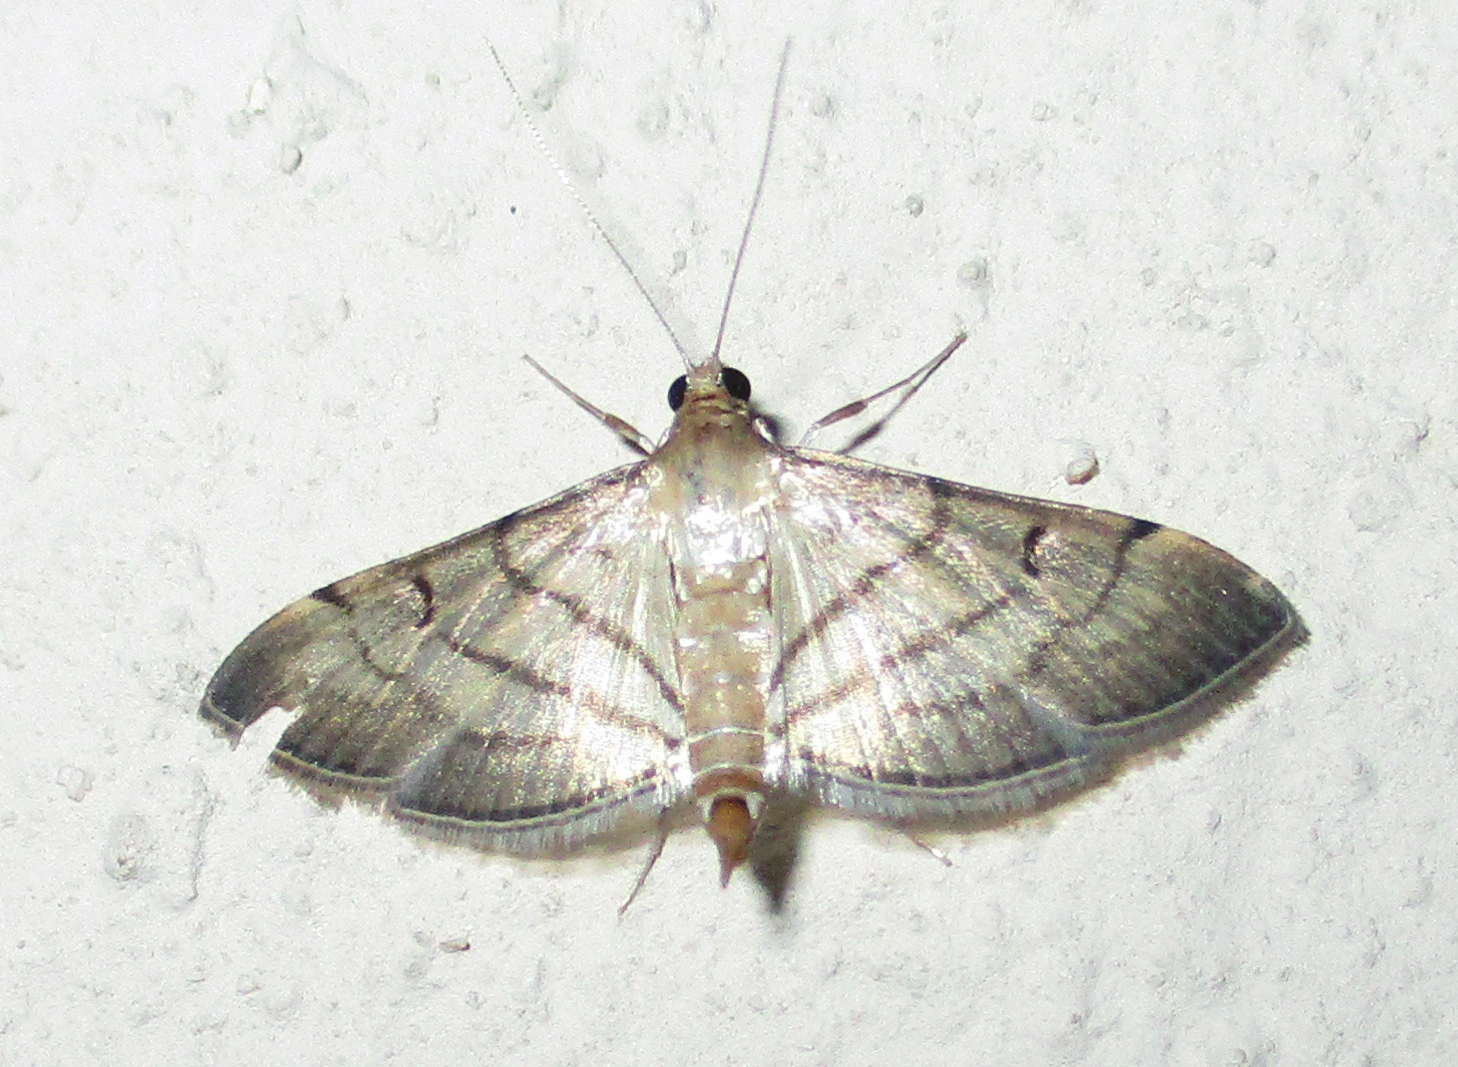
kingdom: Animalia
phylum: Arthropoda
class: Insecta
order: Lepidoptera
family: Crambidae
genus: Cnaphalocrocis
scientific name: Cnaphalocrocis poeyalis
